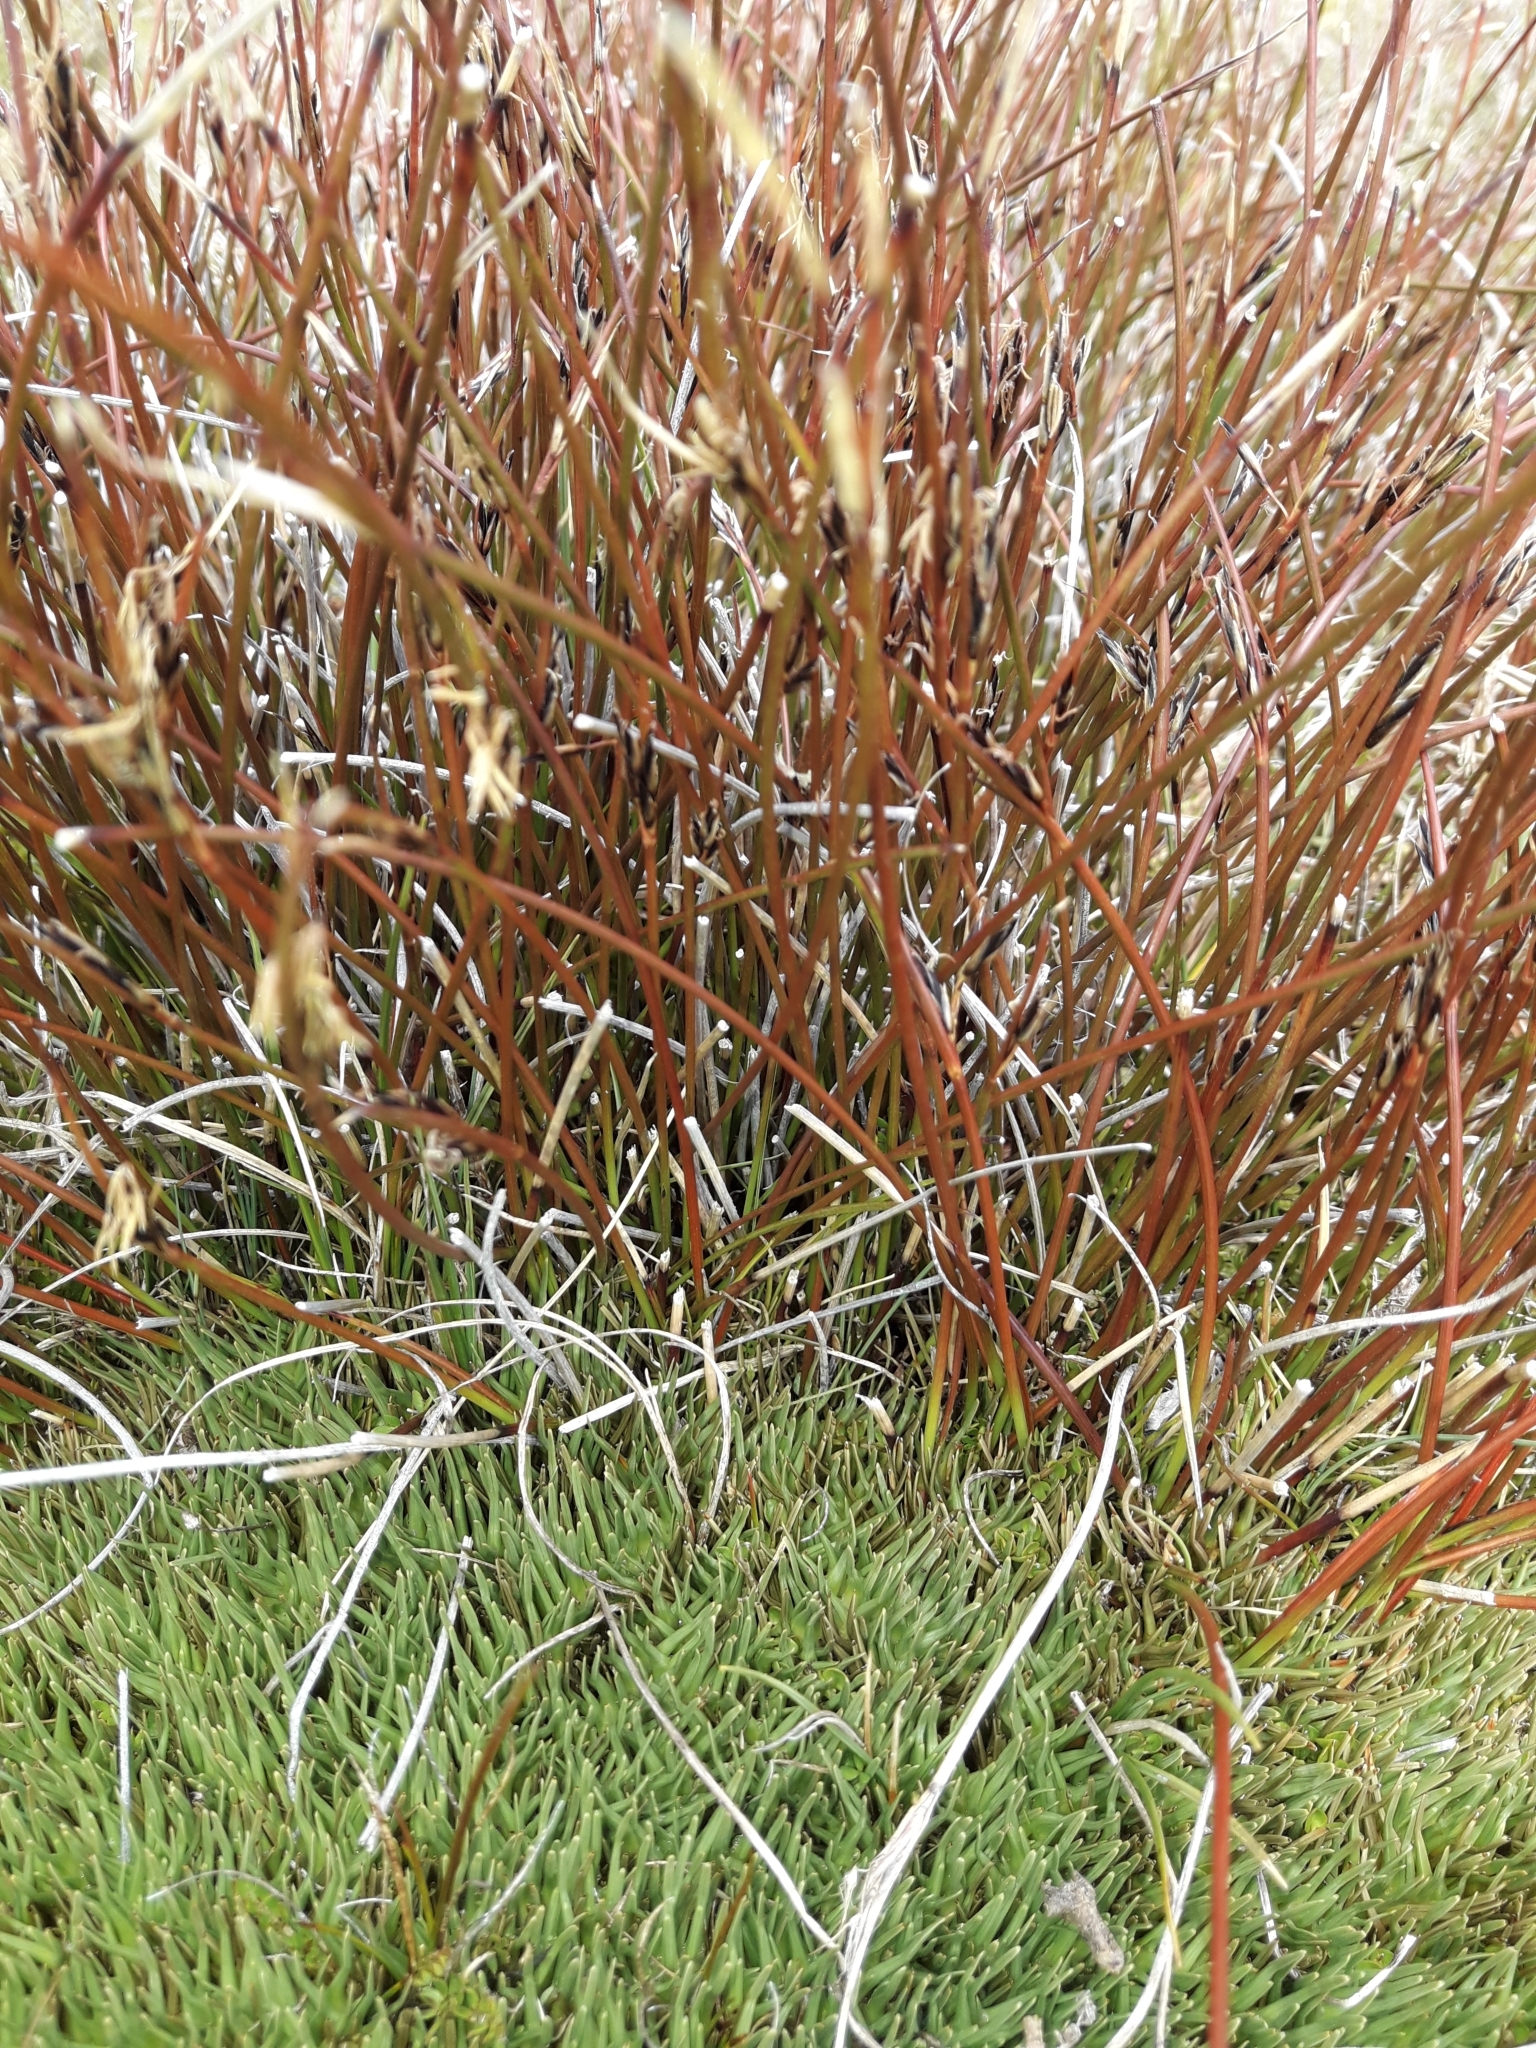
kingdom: Plantae
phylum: Tracheophyta
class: Liliopsida
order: Poales
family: Cyperaceae
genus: Schoenus
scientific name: Schoenus pauciflorus
